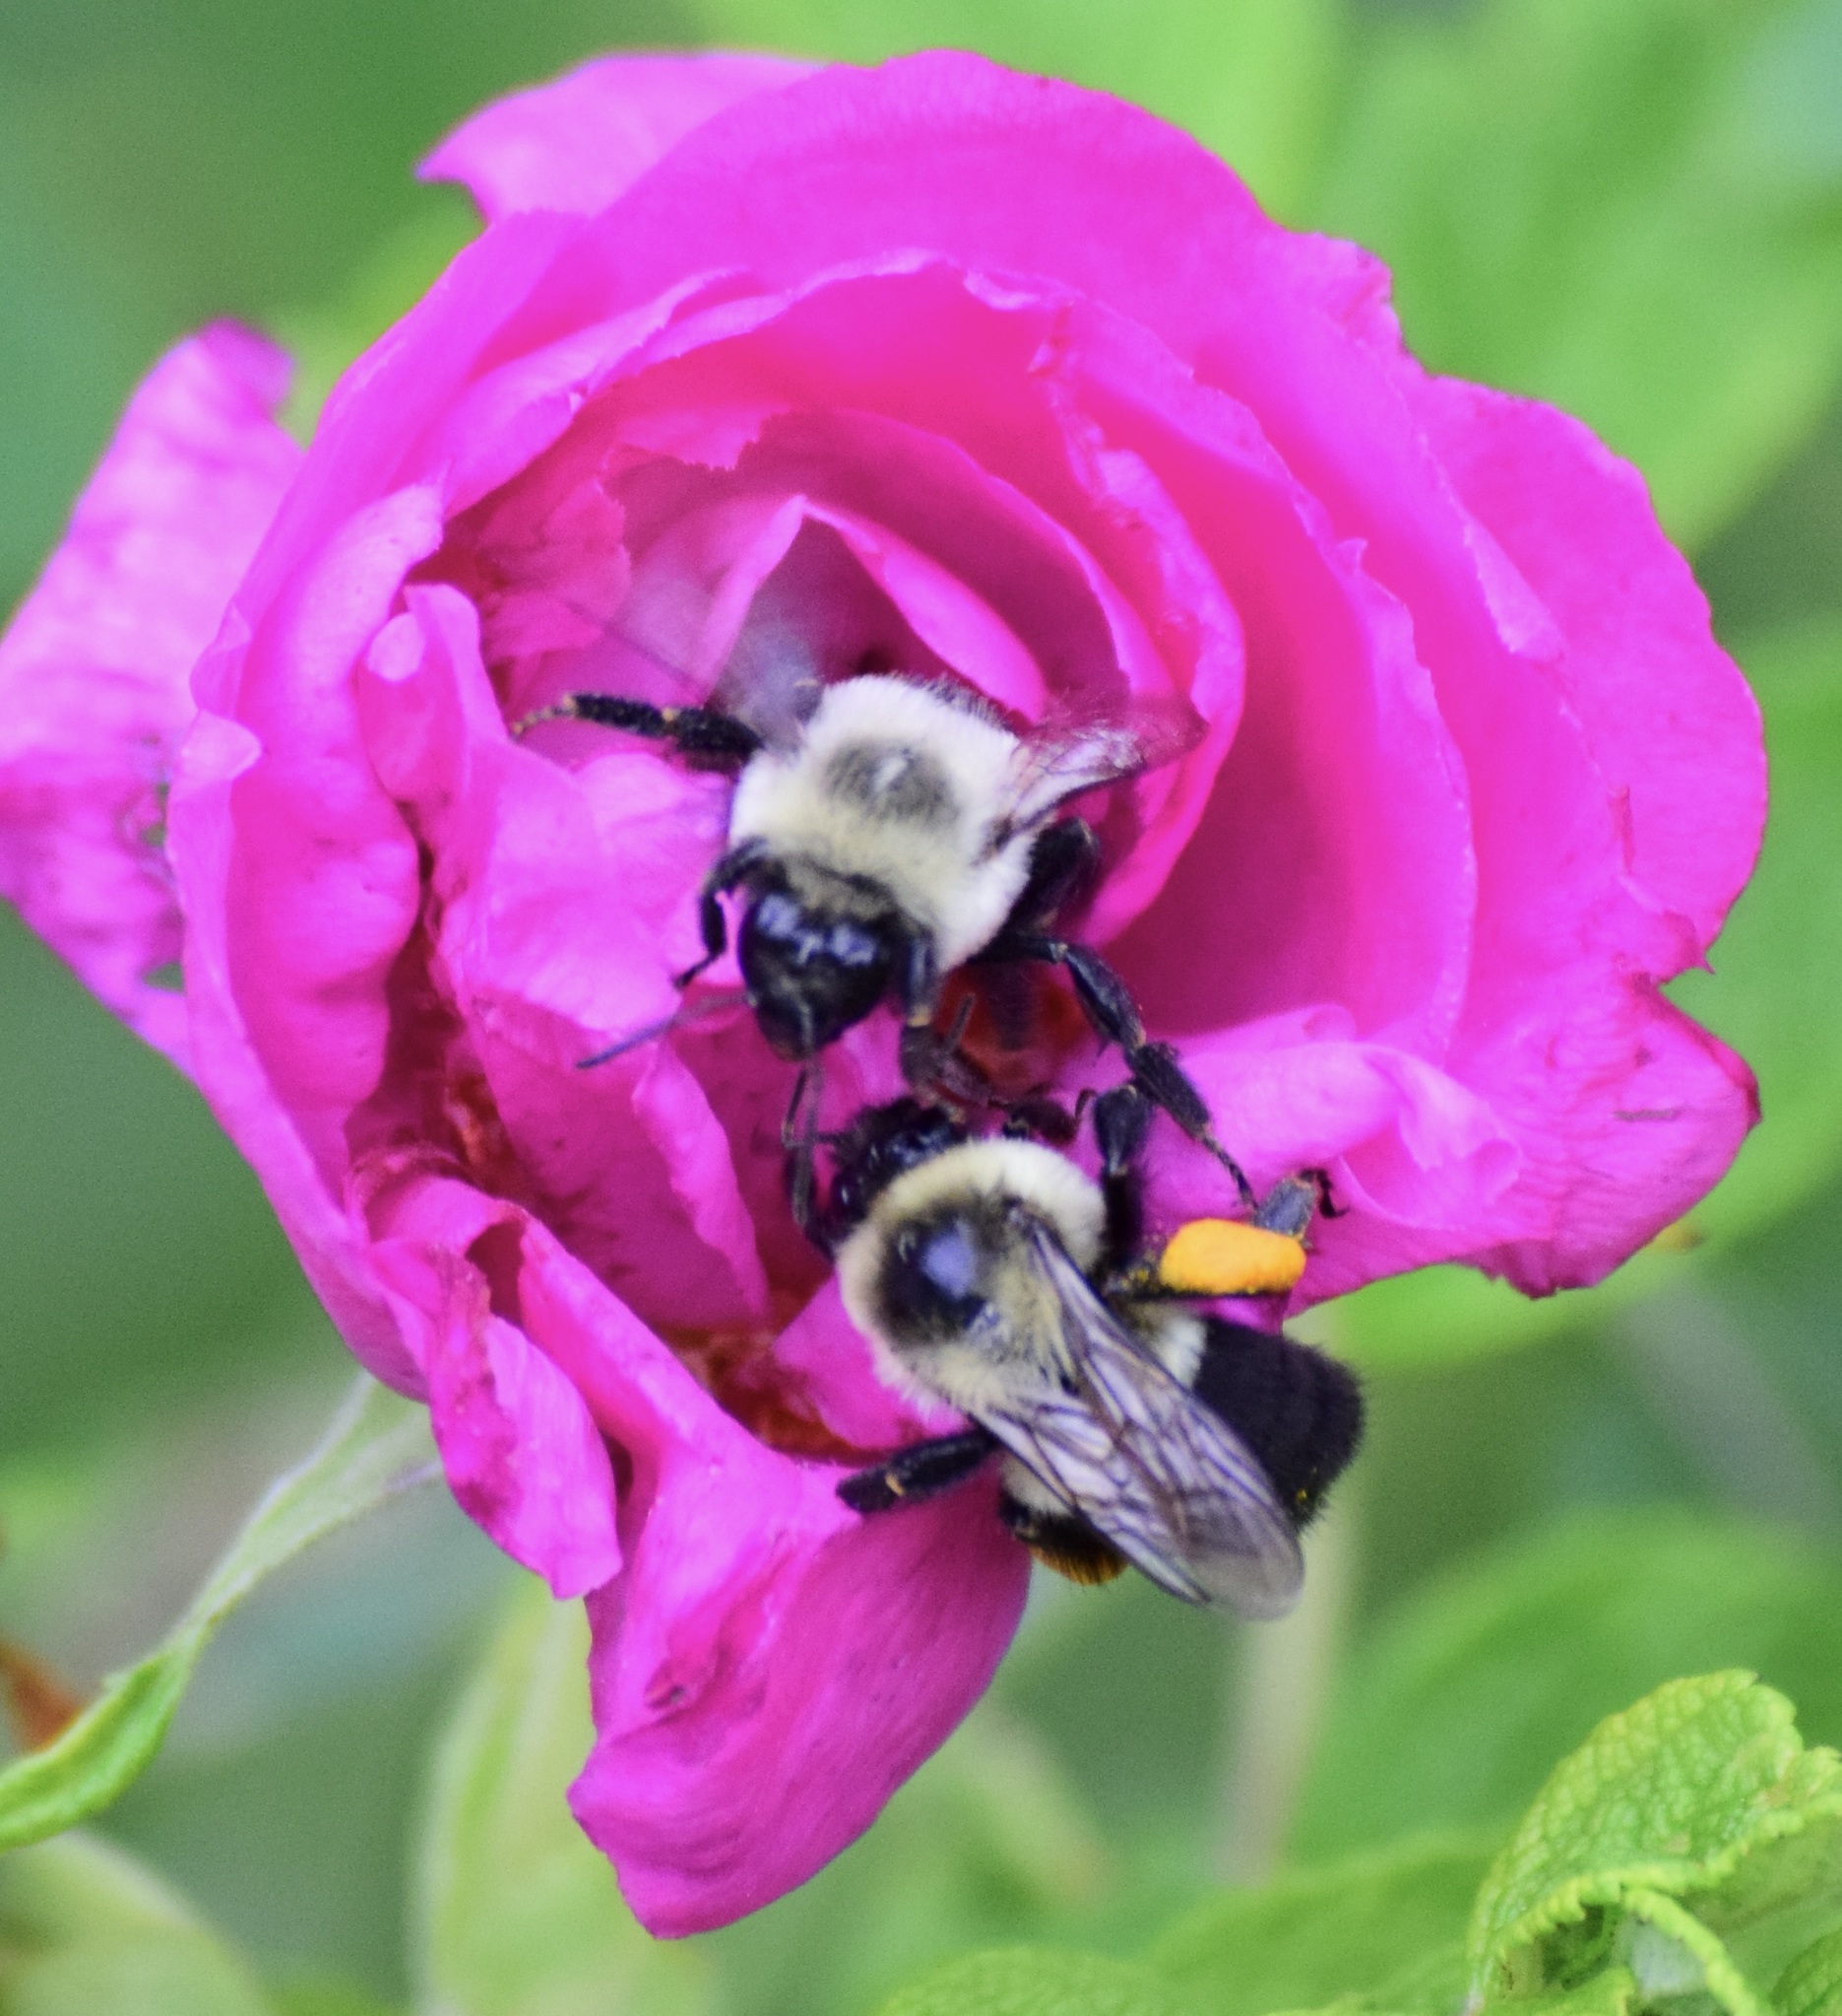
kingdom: Animalia
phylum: Arthropoda
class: Insecta
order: Hymenoptera
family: Apidae
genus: Bombus
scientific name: Bombus impatiens
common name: Common eastern bumble bee
